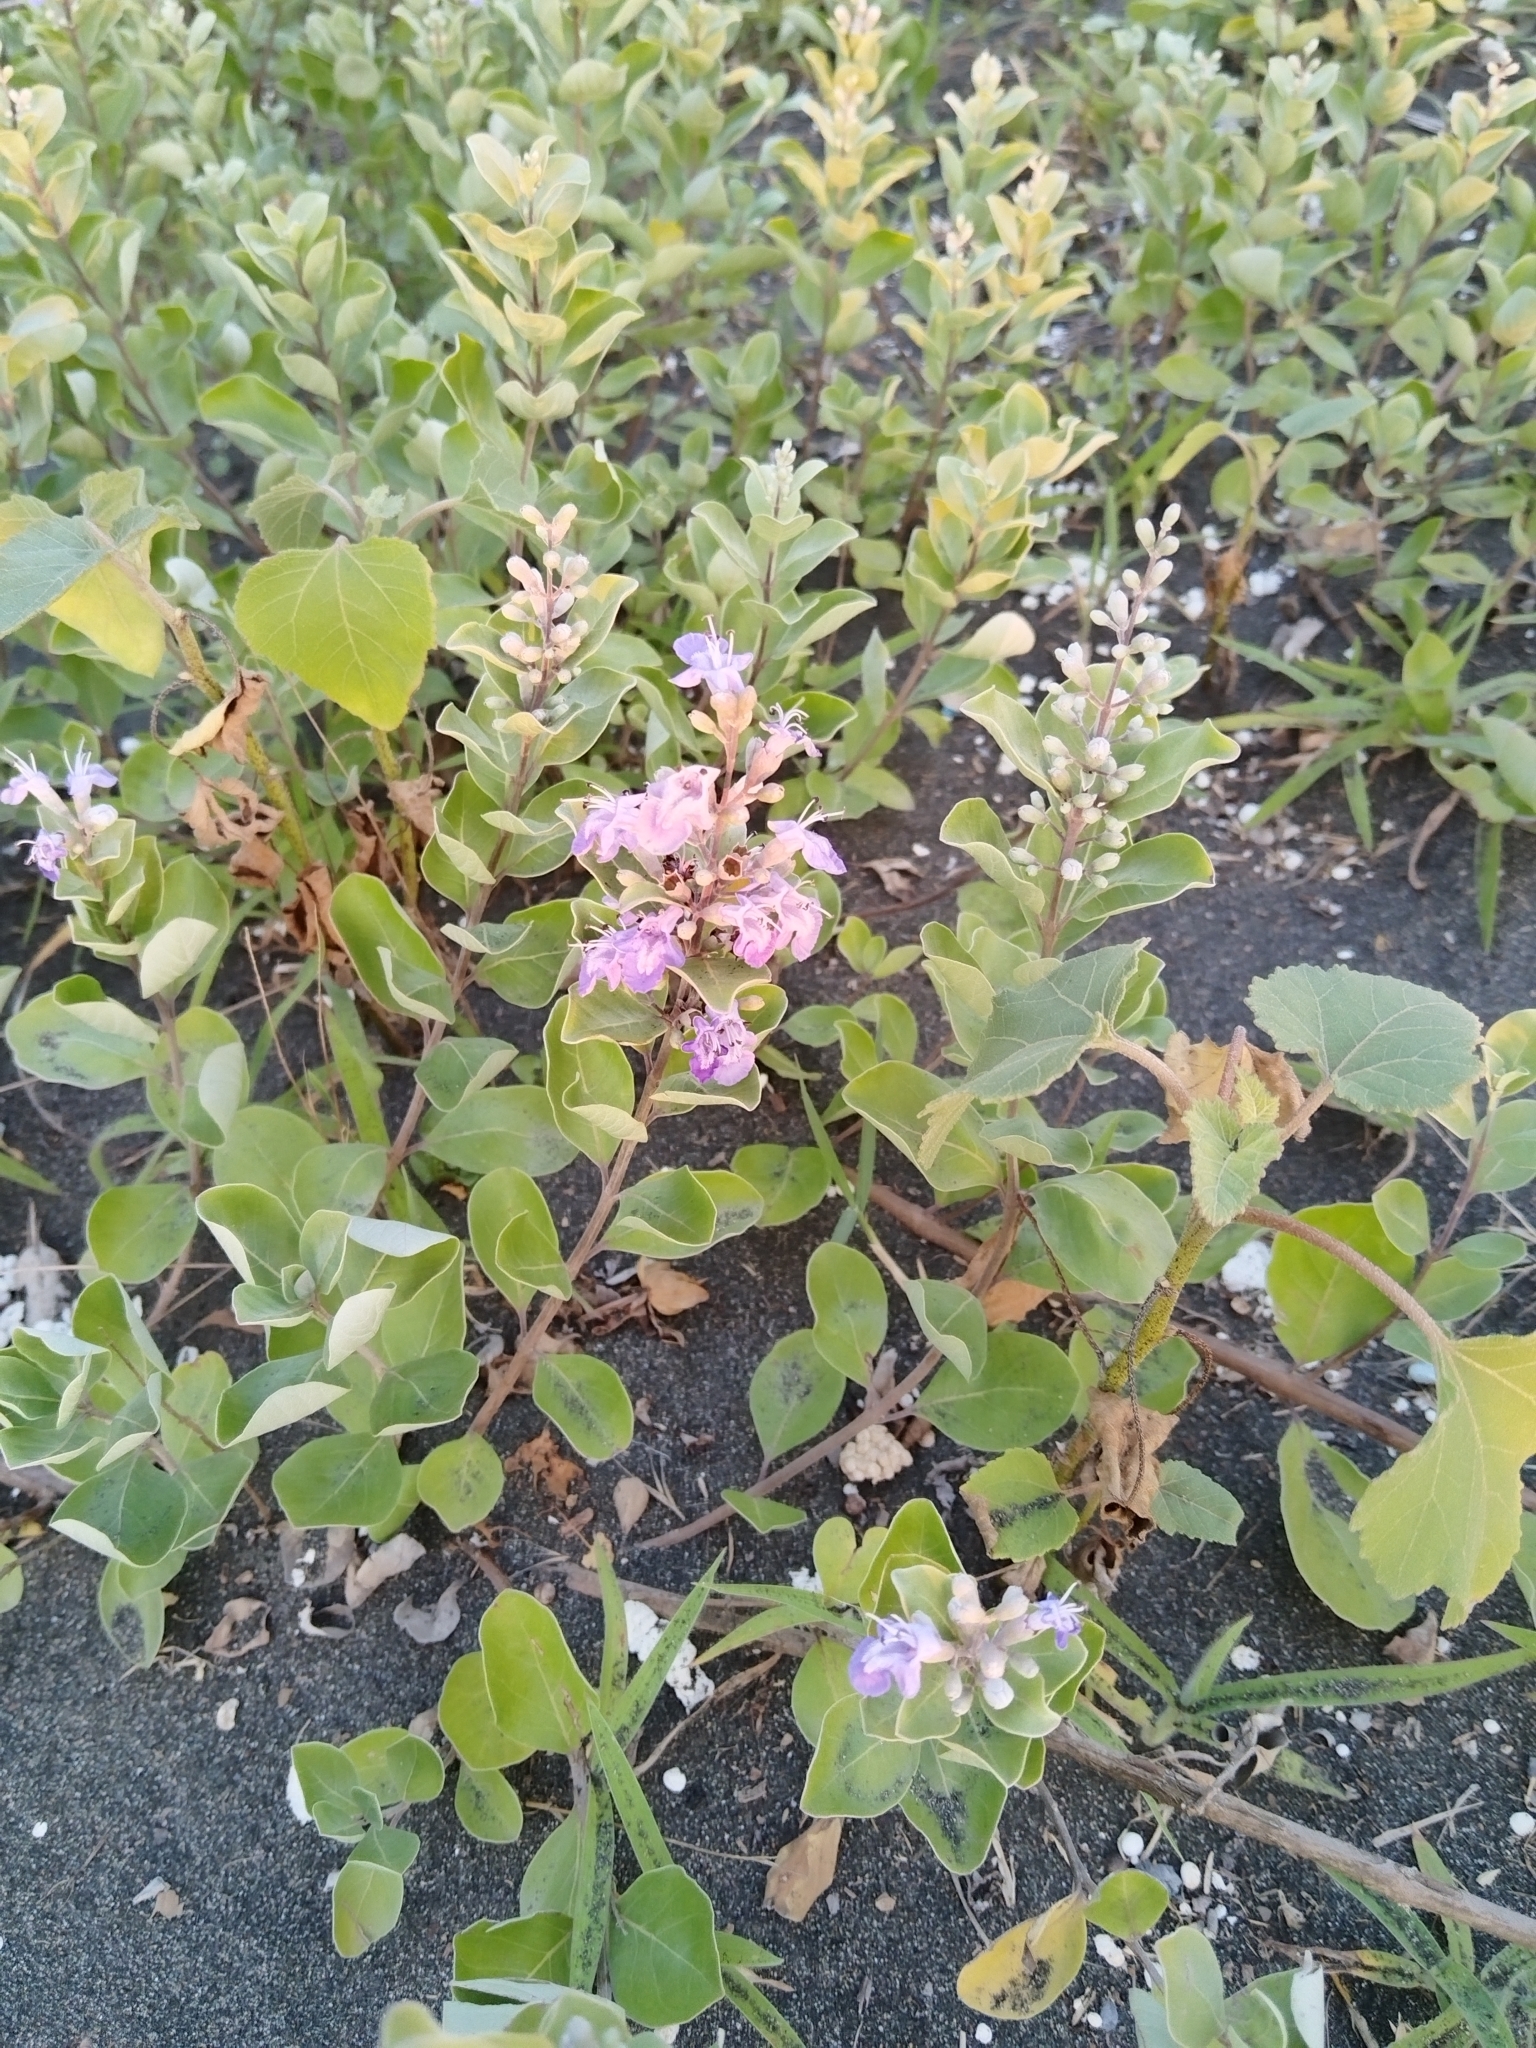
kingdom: Plantae
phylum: Tracheophyta
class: Magnoliopsida
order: Lamiales
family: Lamiaceae
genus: Vitex
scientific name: Vitex rotundifolia
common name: Beach vitex
